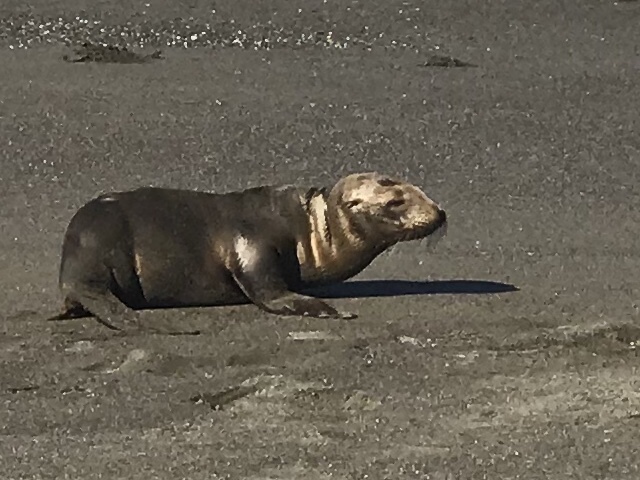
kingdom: Animalia
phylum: Chordata
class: Mammalia
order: Carnivora
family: Otariidae
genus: Zalophus
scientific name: Zalophus californianus
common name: California sea lion
